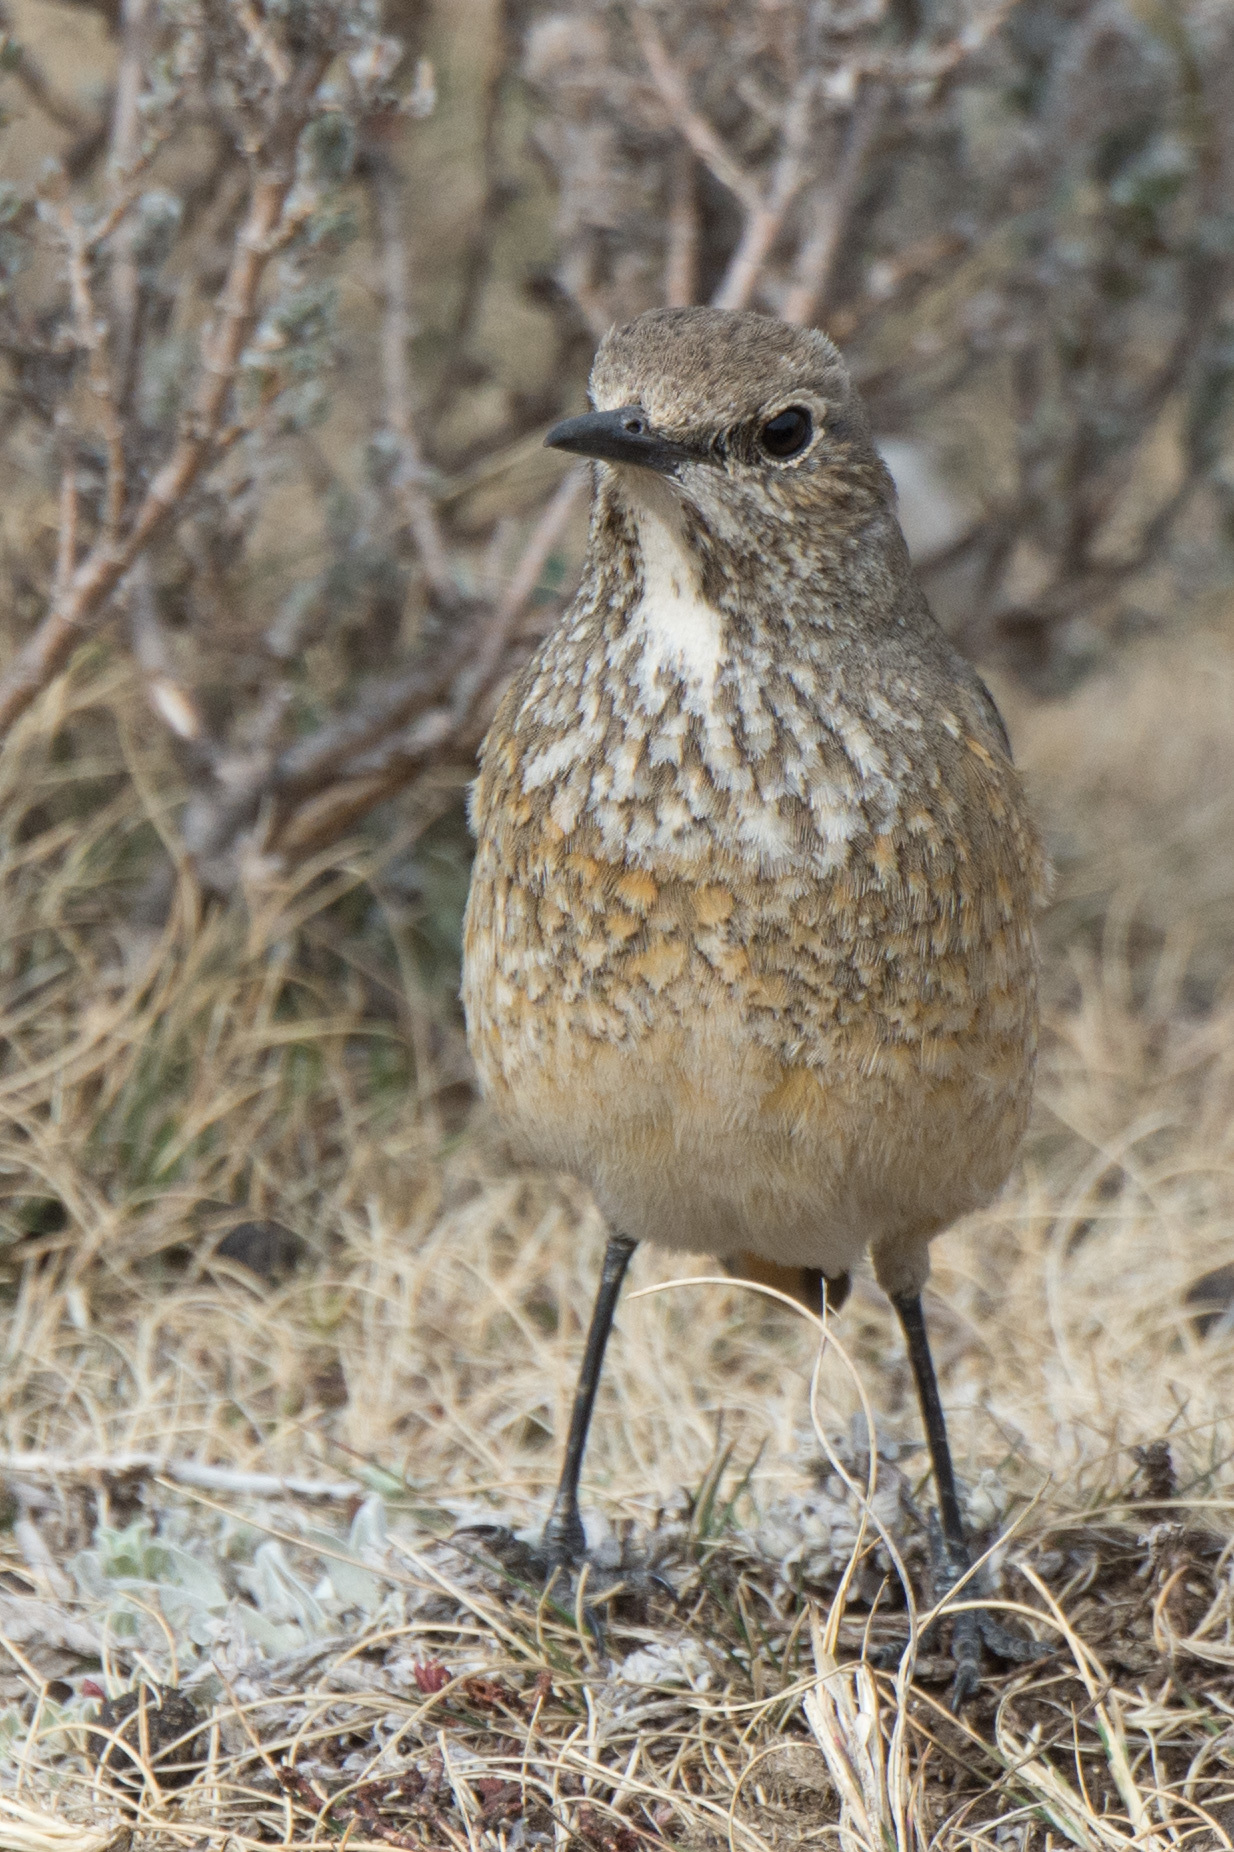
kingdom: Animalia
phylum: Chordata
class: Aves
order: Passeriformes
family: Muscicapidae
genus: Monticola
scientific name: Monticola explorator
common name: Sentinel rock thrush
